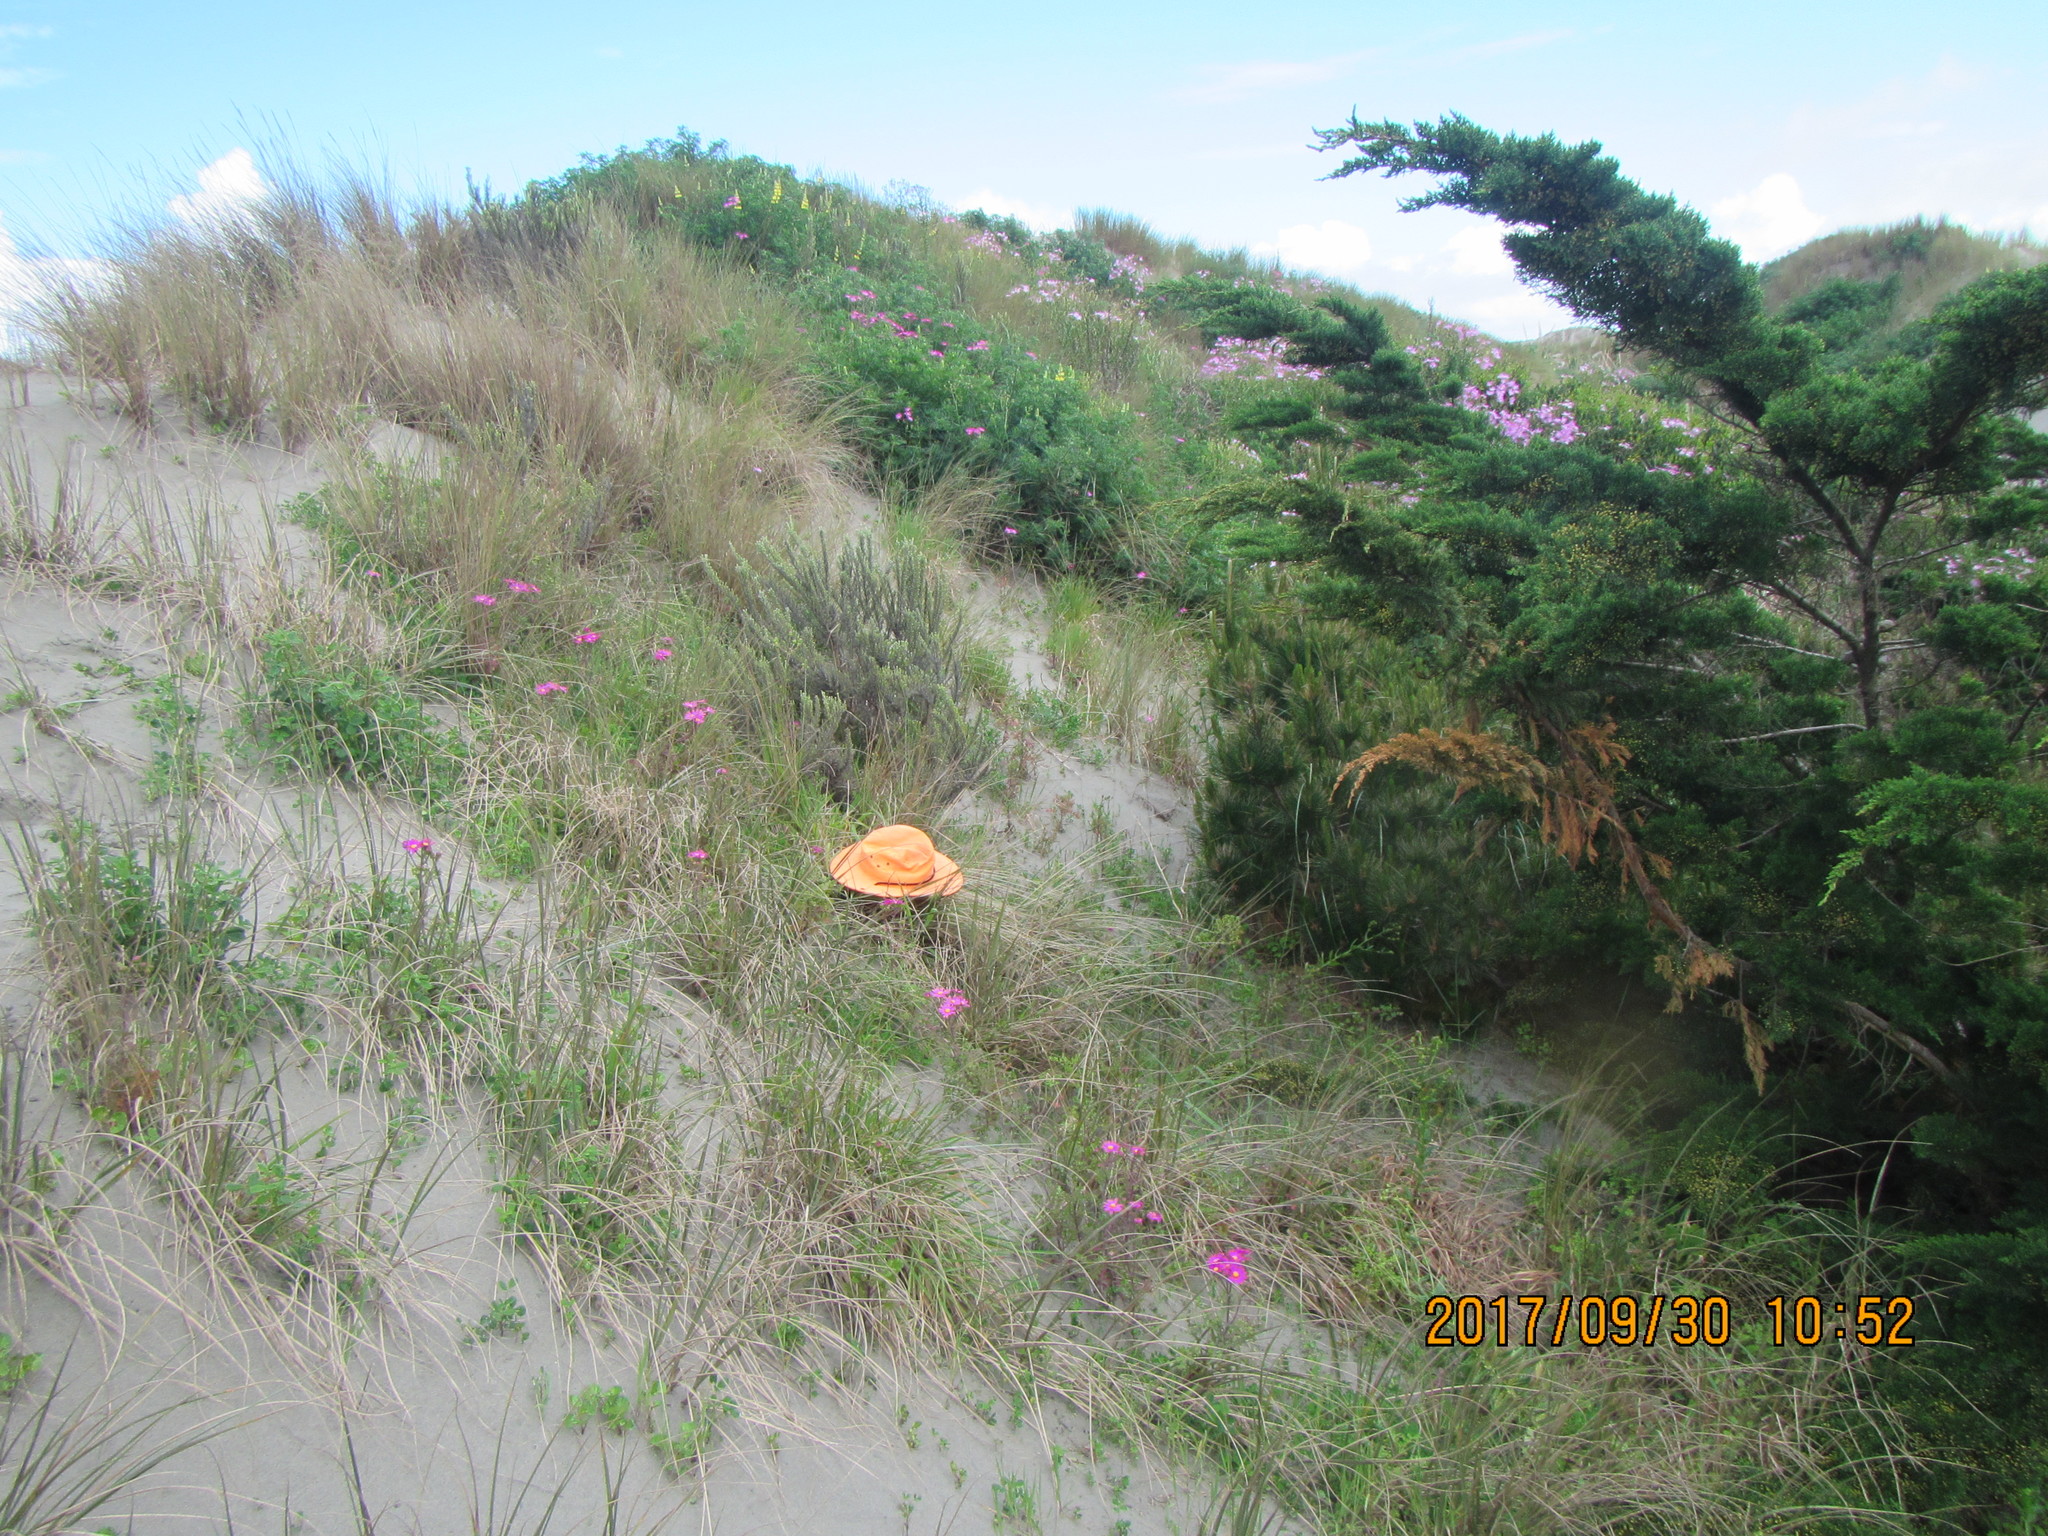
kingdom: Animalia
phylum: Arthropoda
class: Arachnida
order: Opiliones
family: Phalangiidae
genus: Phalangium
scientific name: Phalangium opilio
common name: Daddy longleg
